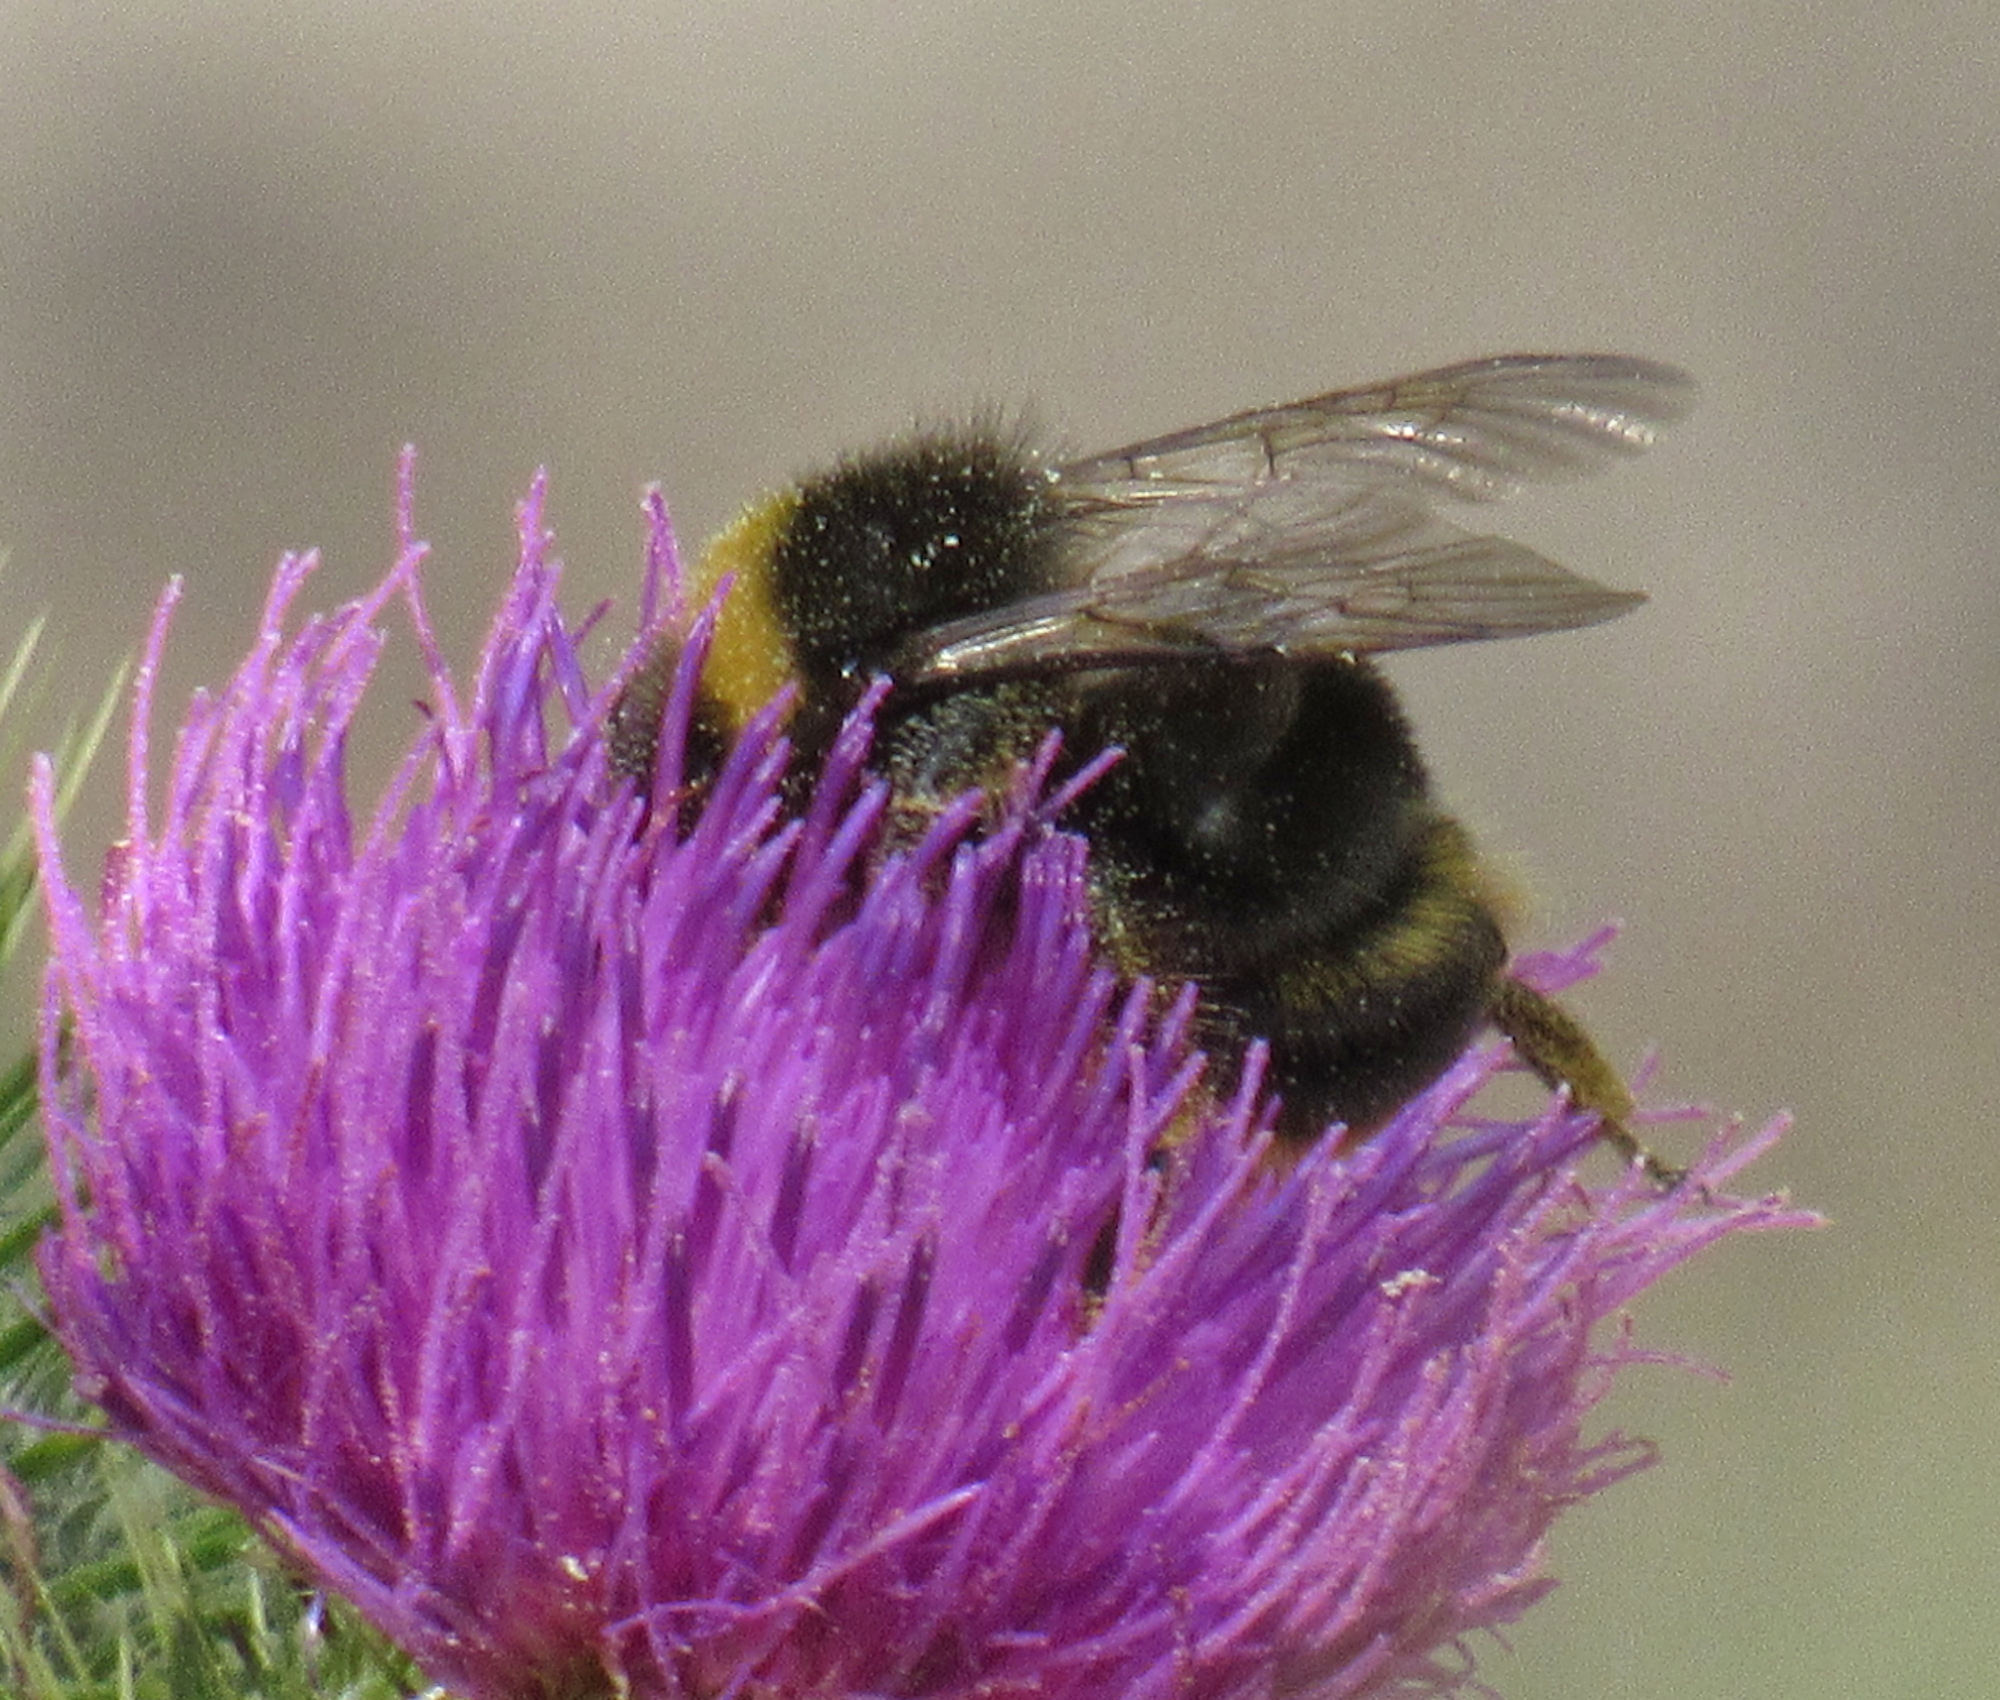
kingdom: Animalia
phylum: Arthropoda
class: Insecta
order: Hymenoptera
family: Apidae
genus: Bombus
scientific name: Bombus occidentalis
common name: Western bumble bee
